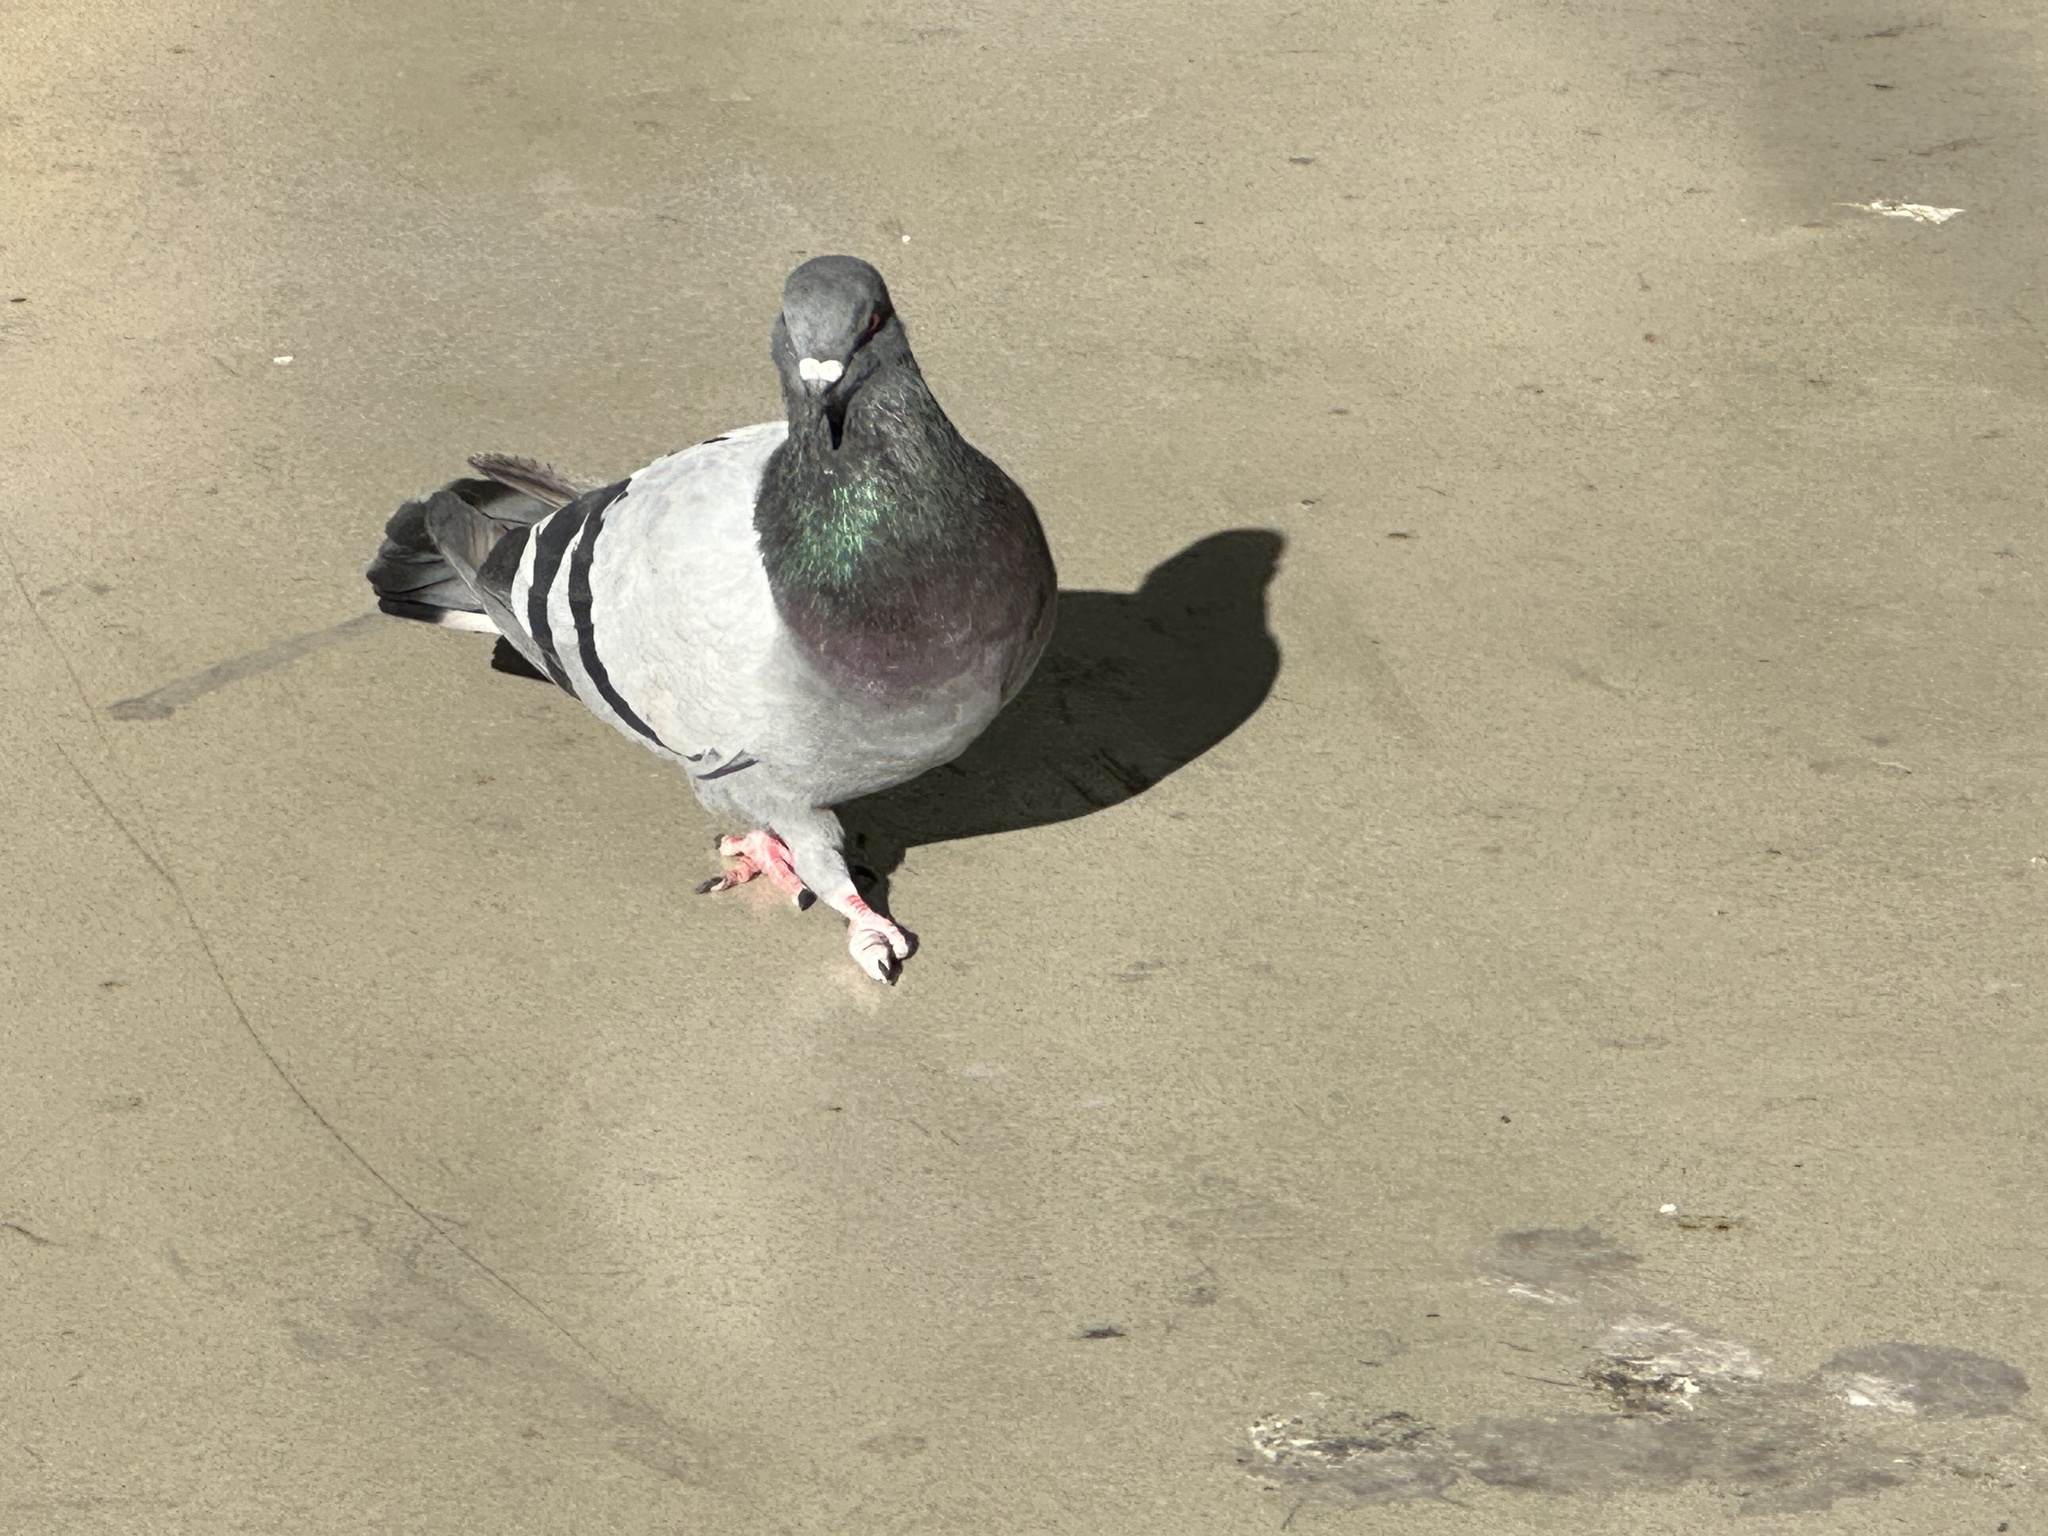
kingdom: Animalia
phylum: Chordata
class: Aves
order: Columbiformes
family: Columbidae
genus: Columba
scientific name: Columba livia
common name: Rock pigeon
